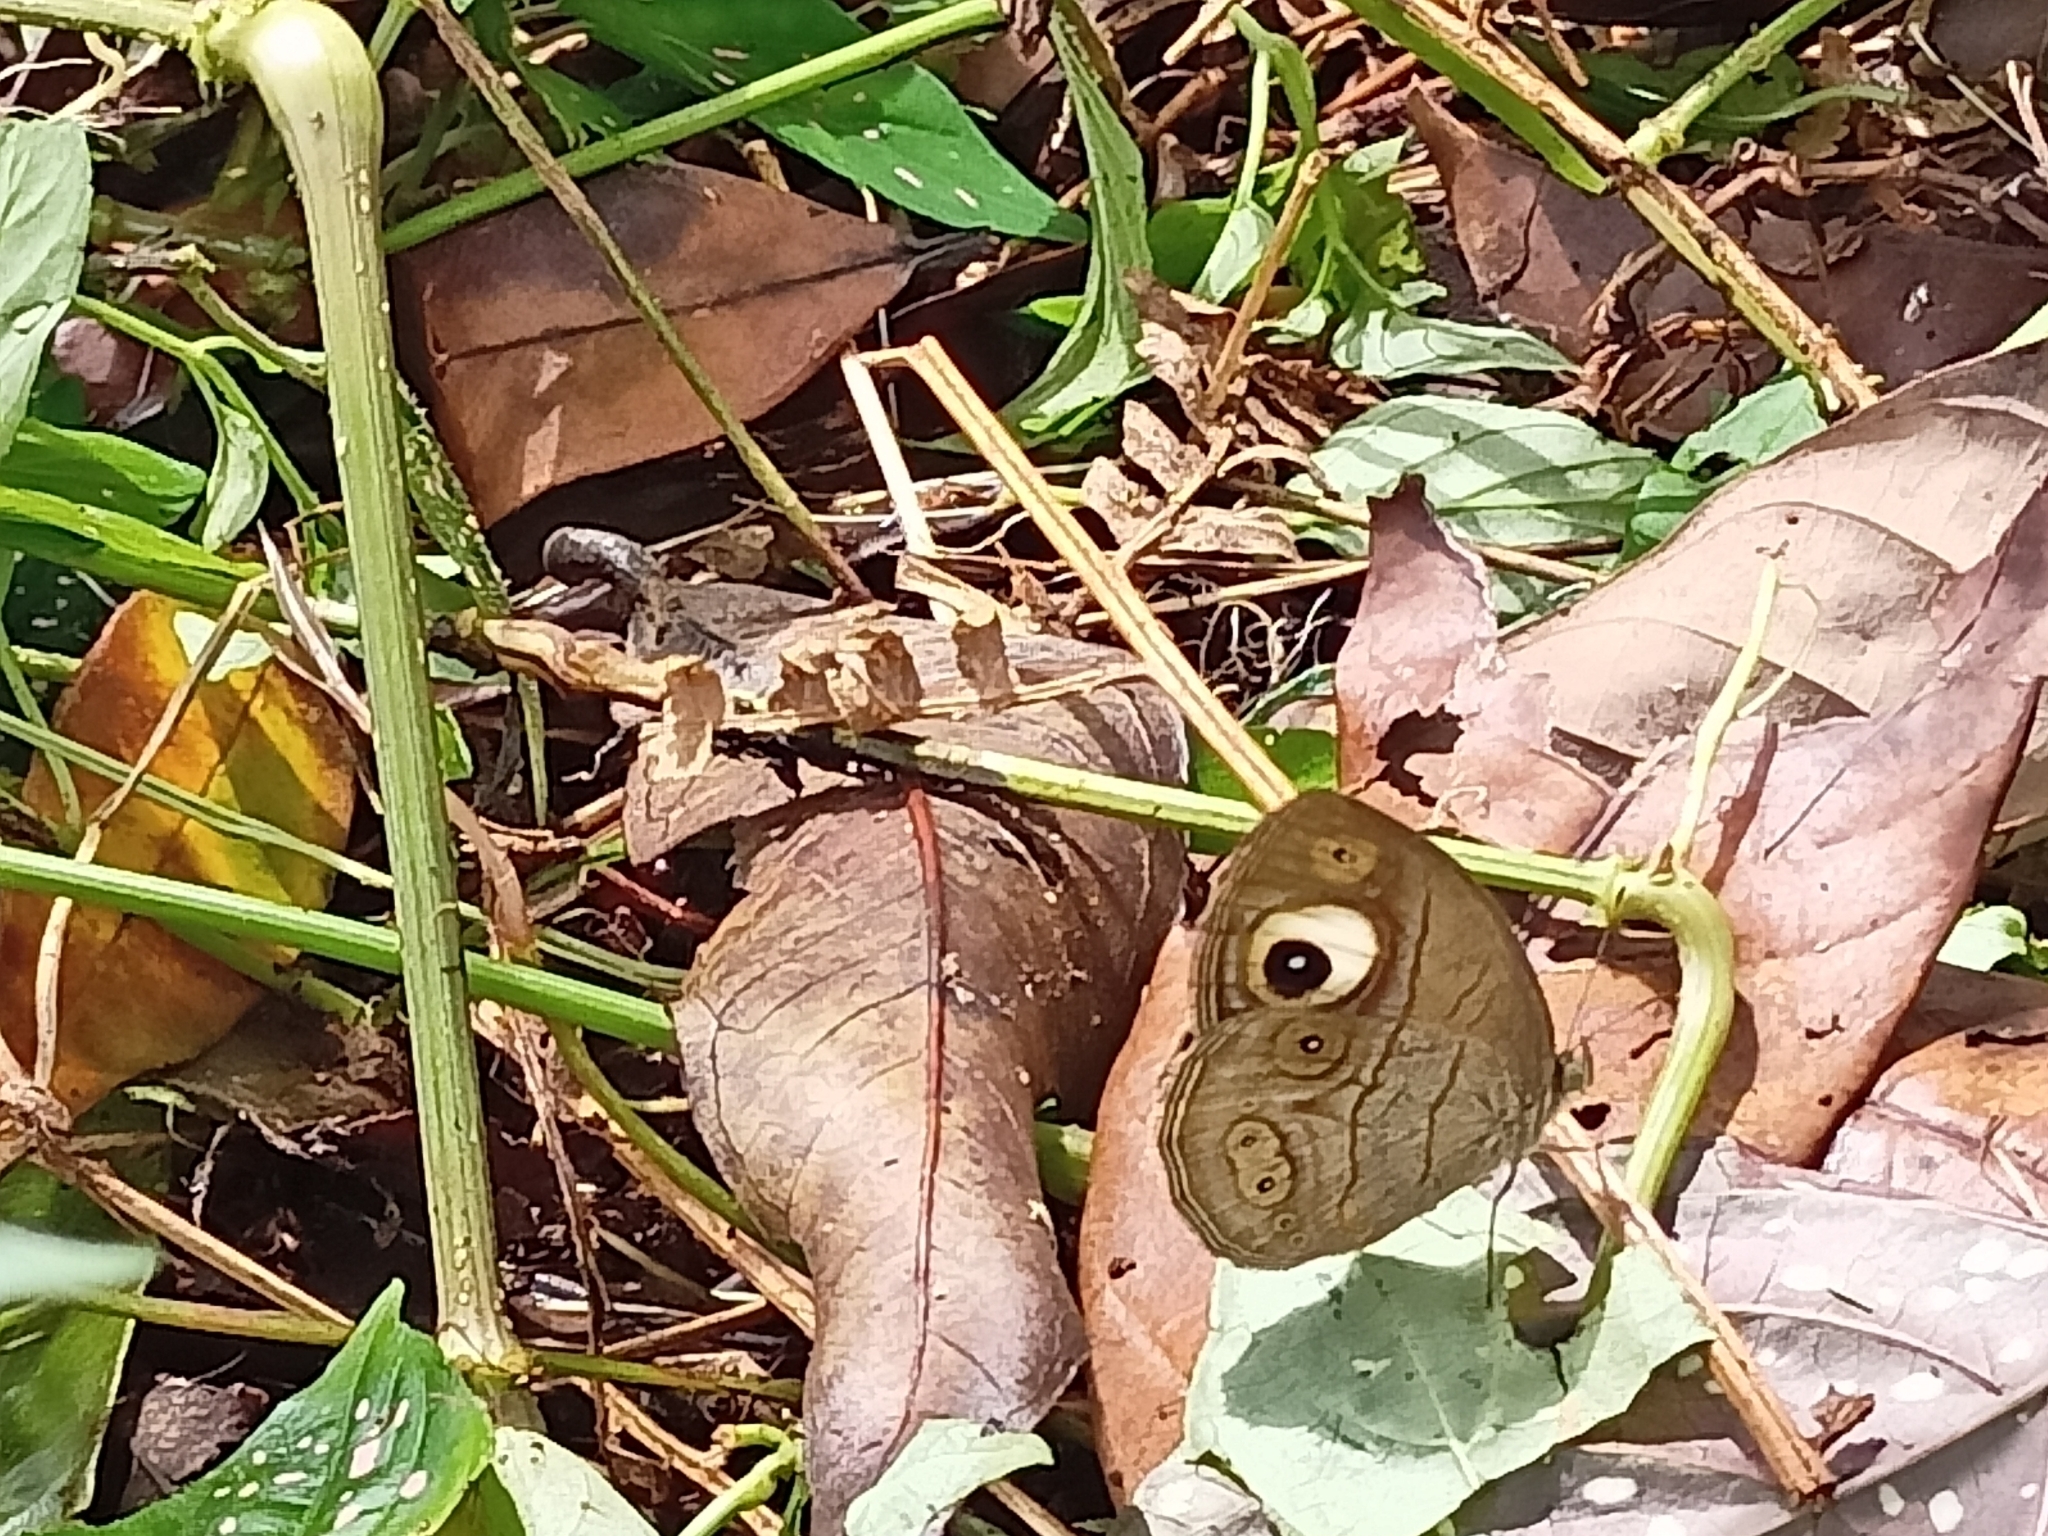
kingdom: Animalia
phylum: Arthropoda
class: Insecta
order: Lepidoptera
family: Nymphalidae
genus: Mycalesis
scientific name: Mycalesis patnia
